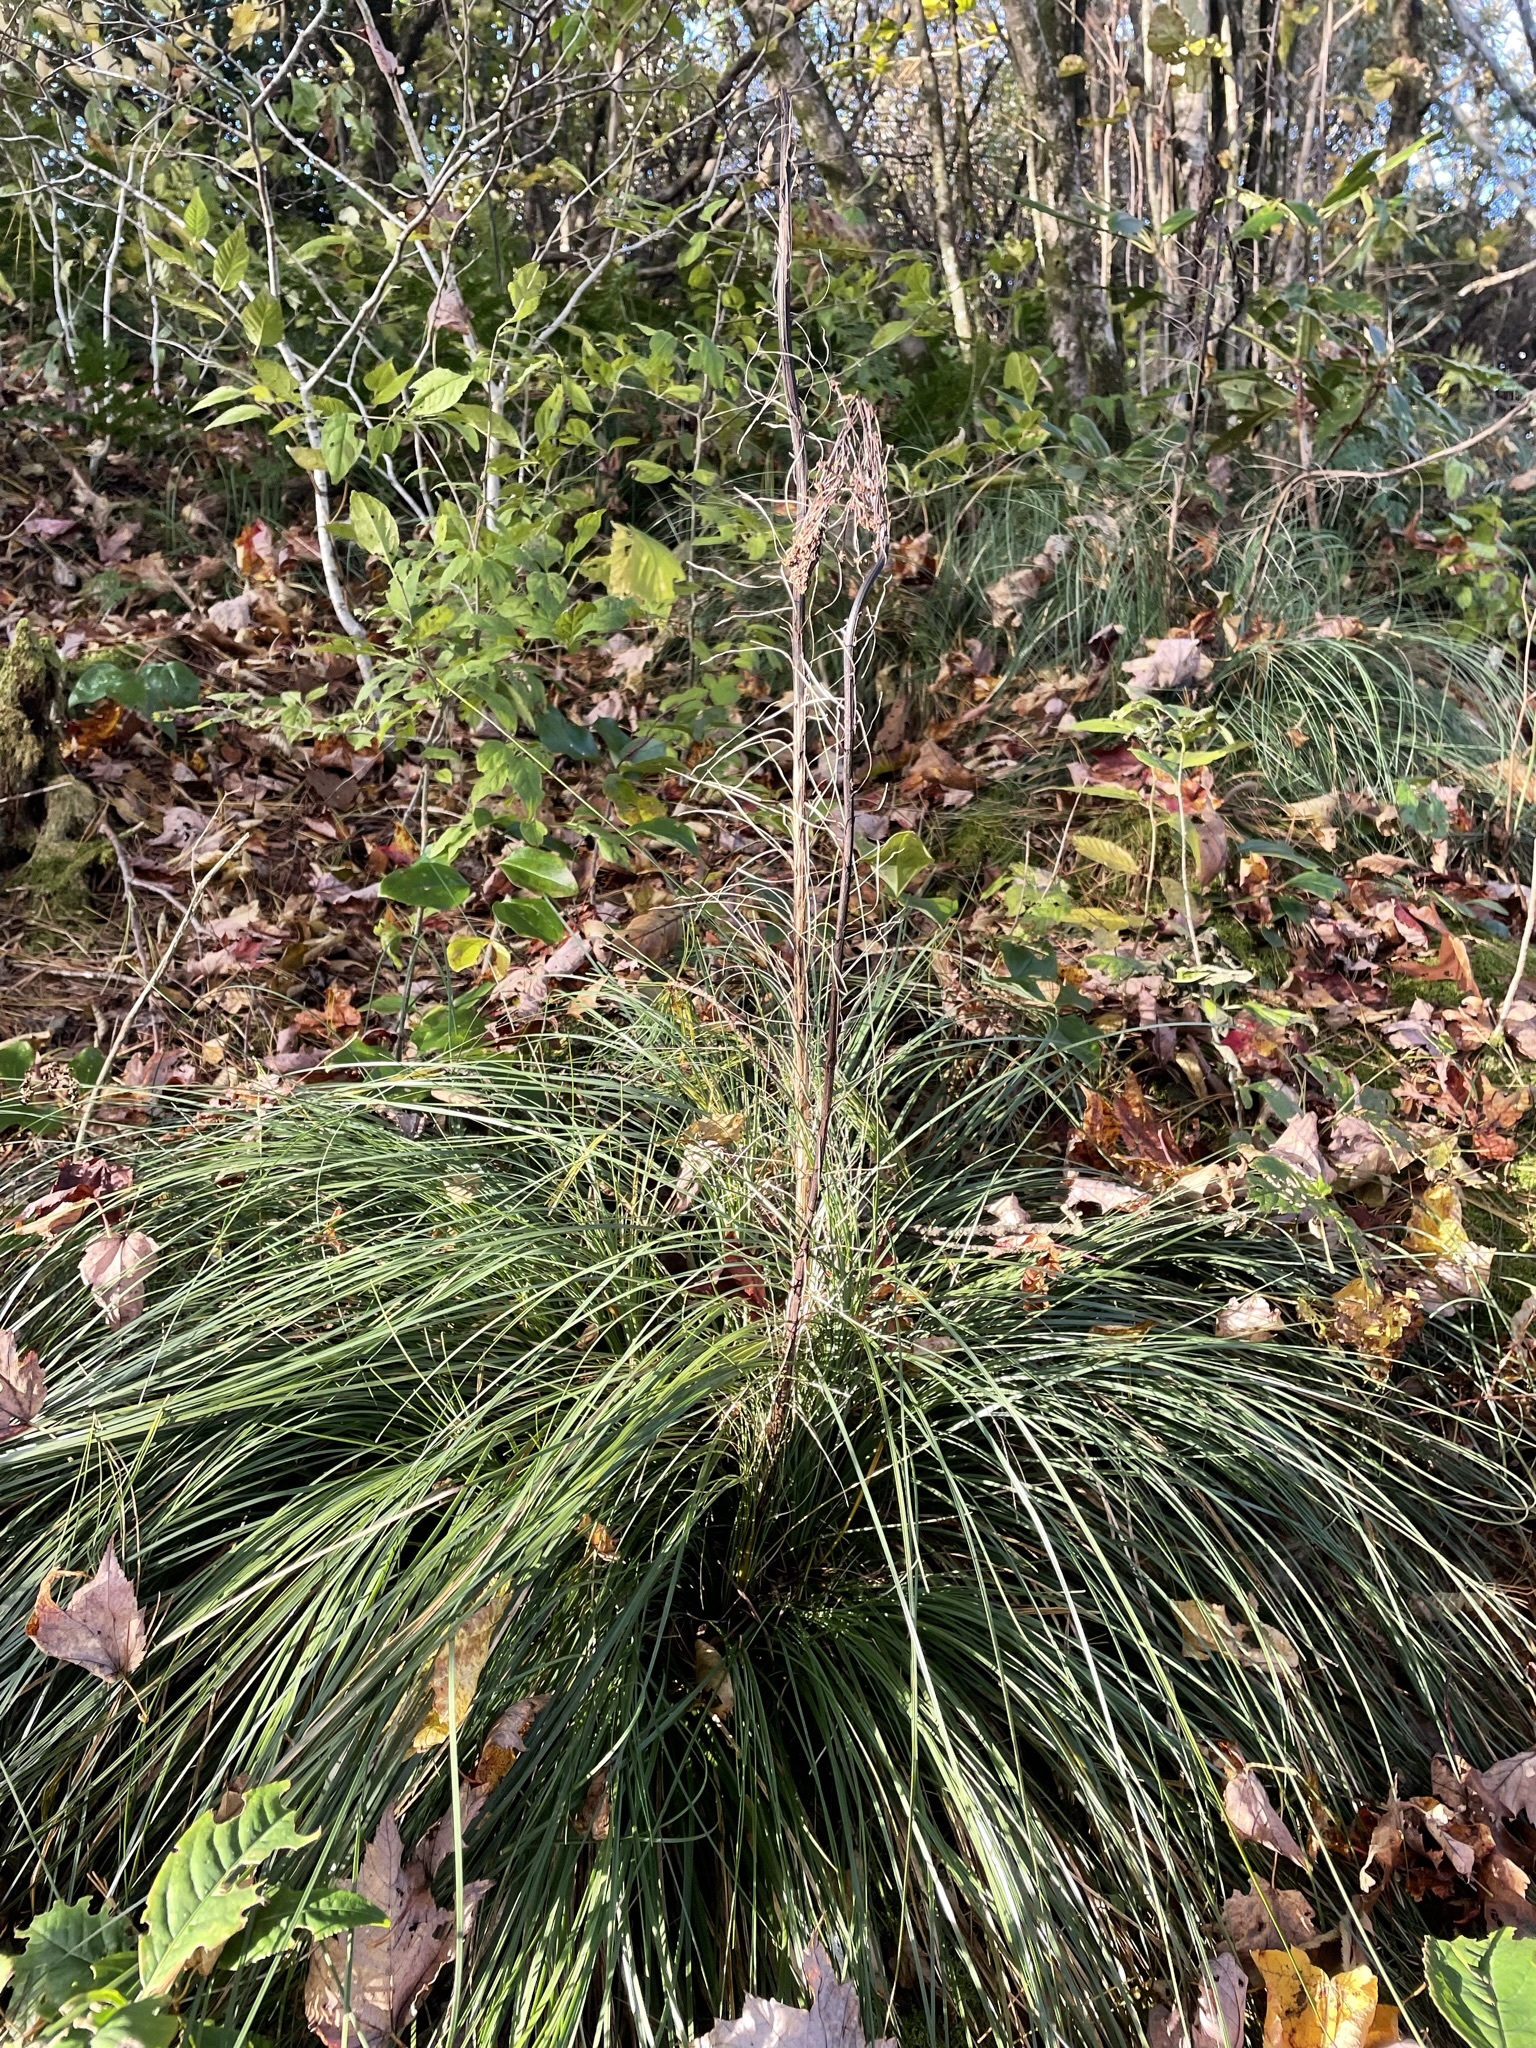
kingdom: Plantae
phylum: Tracheophyta
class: Liliopsida
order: Liliales
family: Melanthiaceae
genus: Xerophyllum
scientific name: Xerophyllum asphodeloides
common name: Mountain-asphodel
